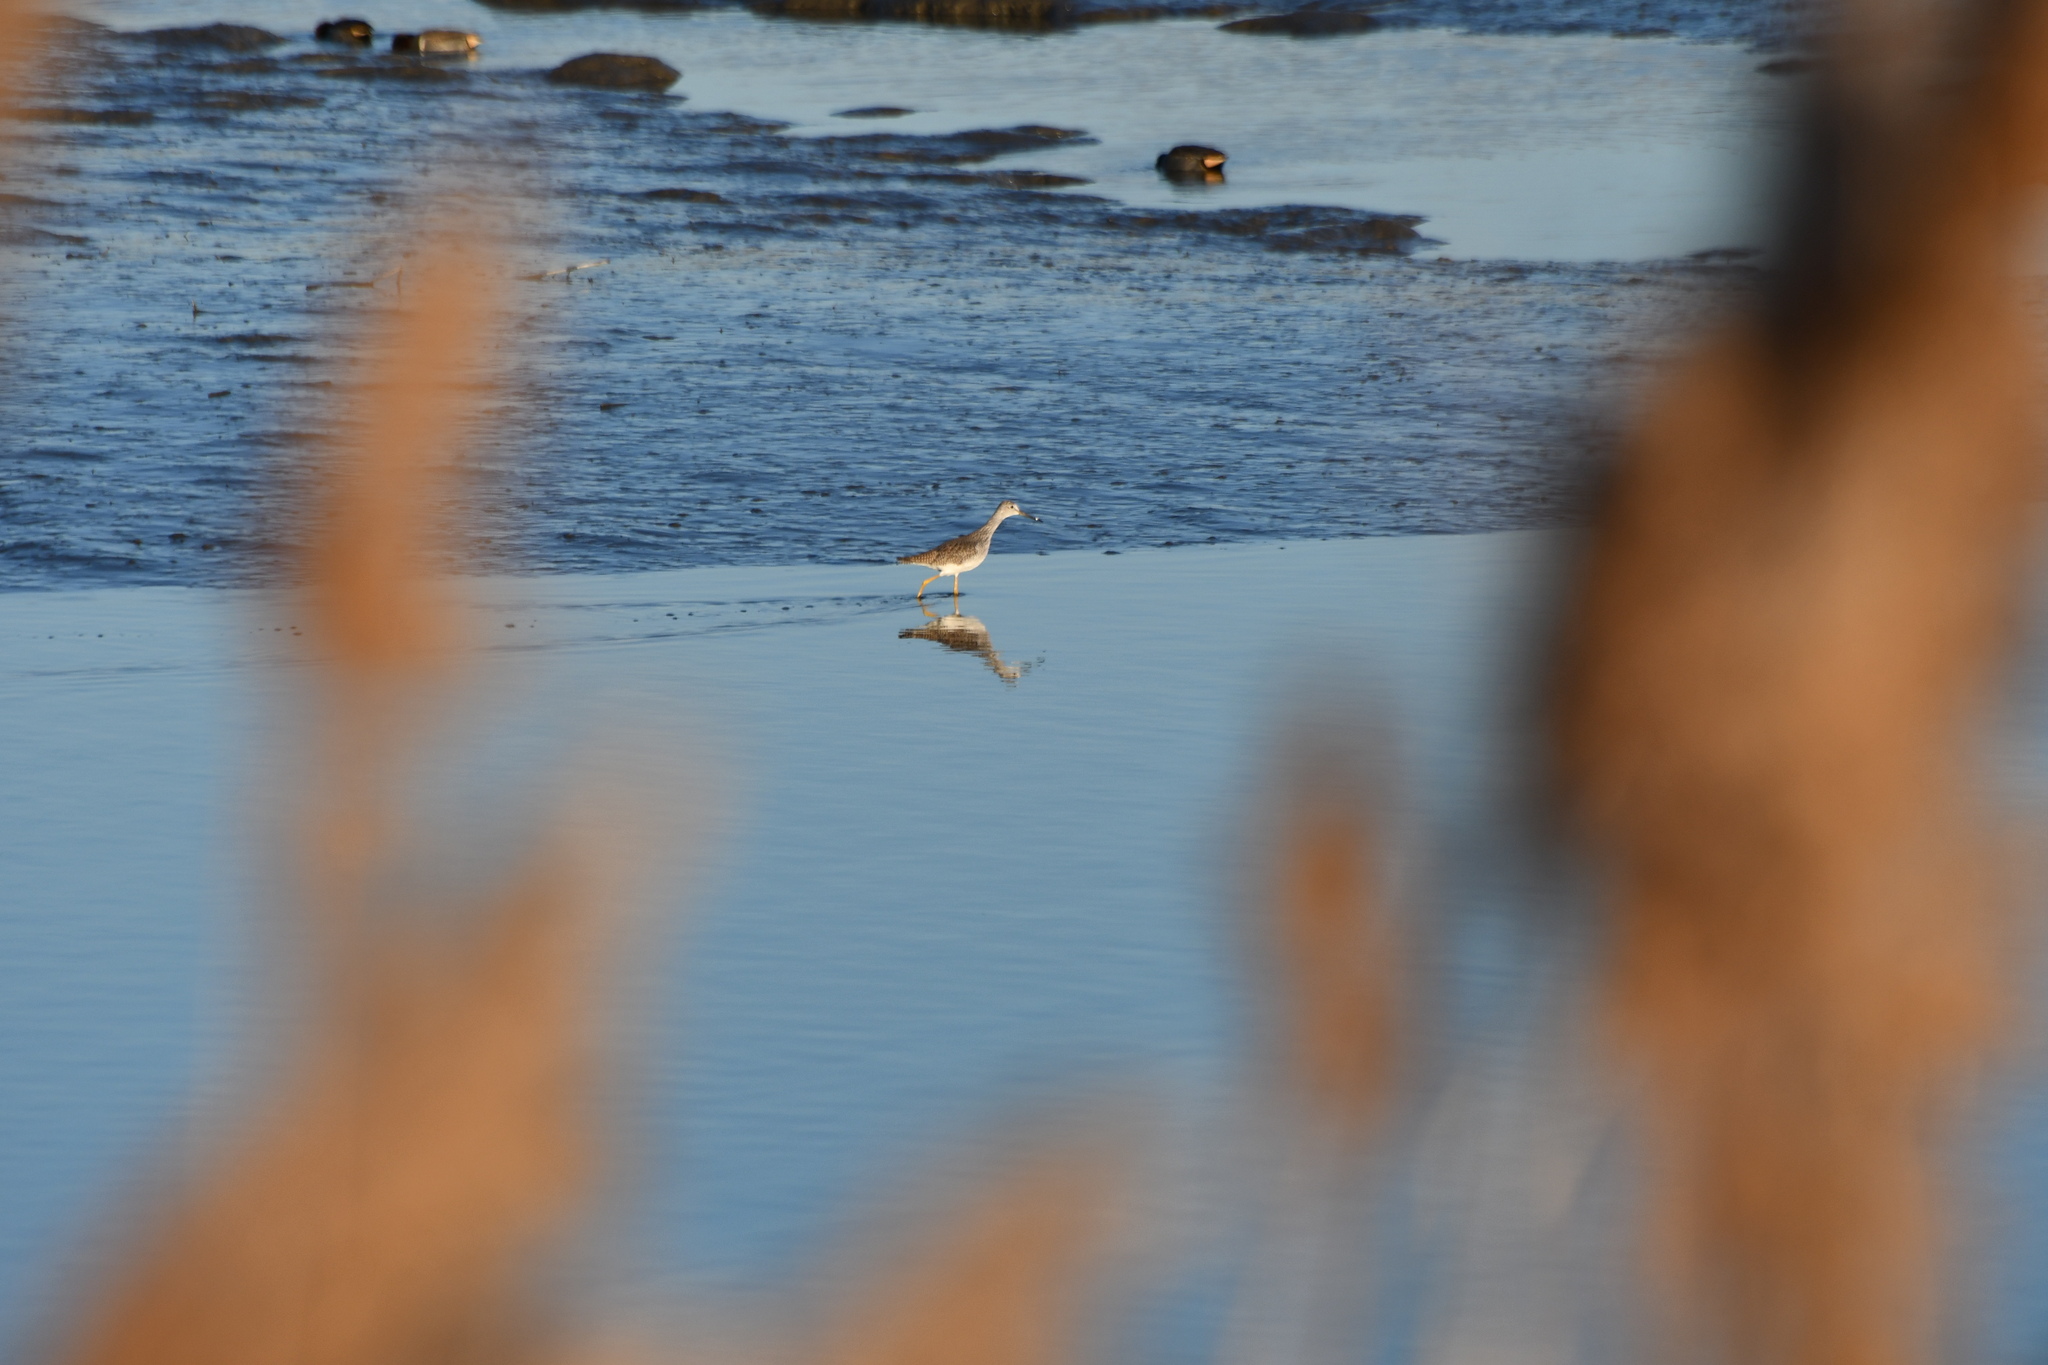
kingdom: Animalia
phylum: Chordata
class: Aves
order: Charadriiformes
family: Scolopacidae
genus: Tringa
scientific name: Tringa melanoleuca
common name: Greater yellowlegs
